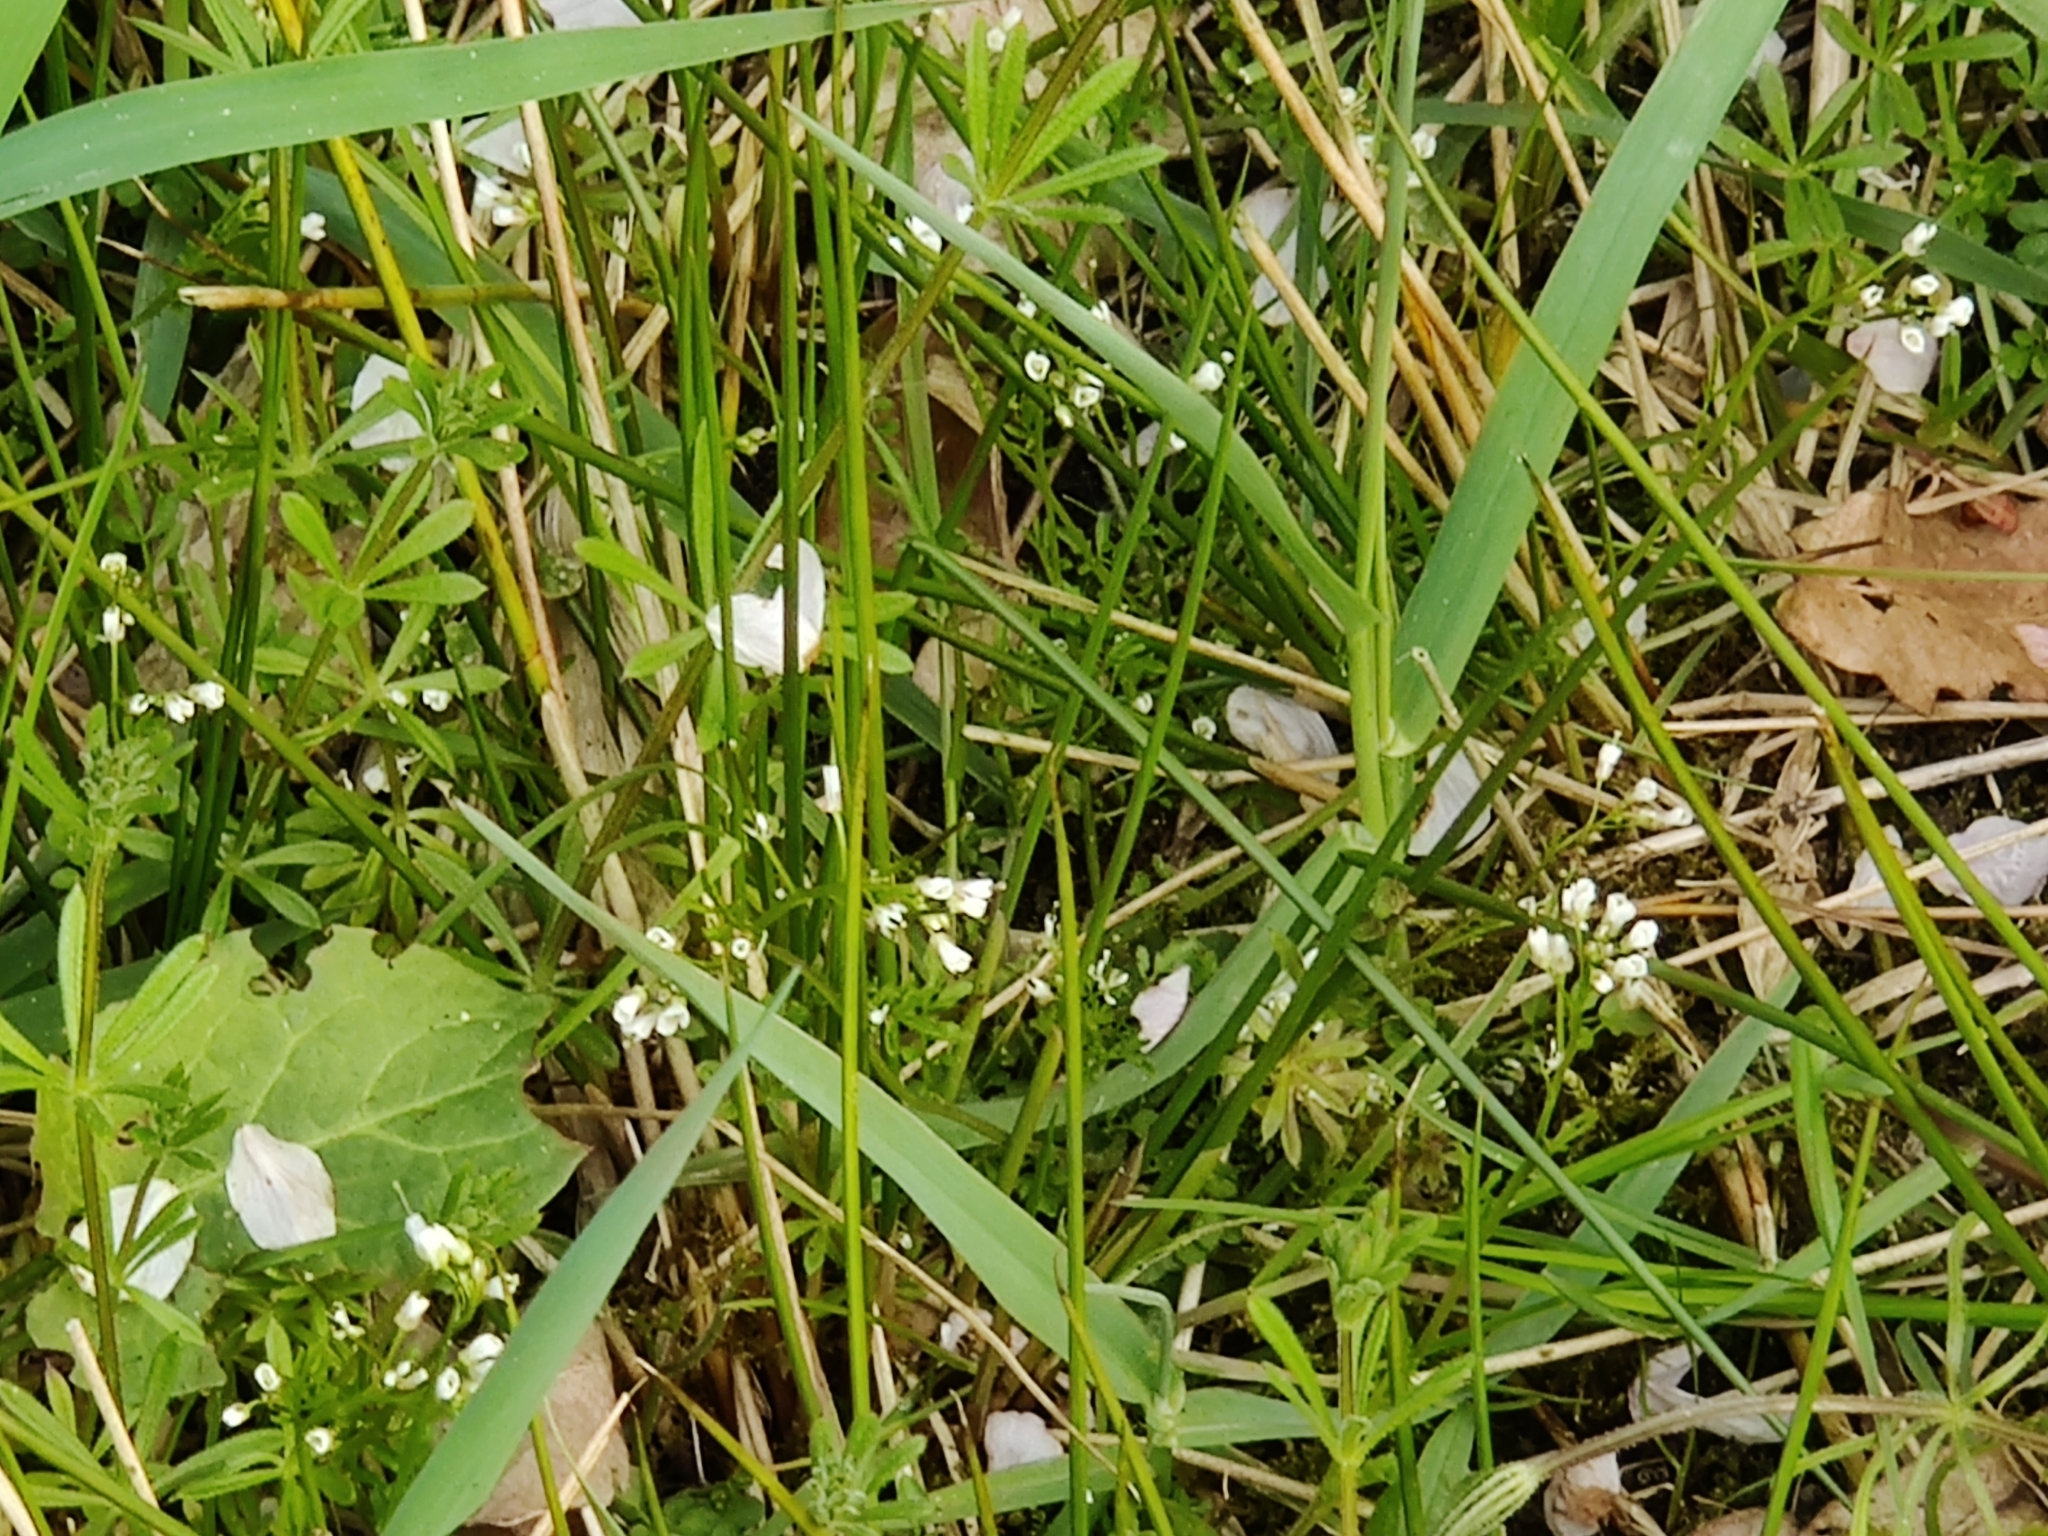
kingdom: Plantae
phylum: Tracheophyta
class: Magnoliopsida
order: Brassicales
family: Brassicaceae
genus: Cardamine
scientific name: Cardamine hirsuta
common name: Hairy bittercress
